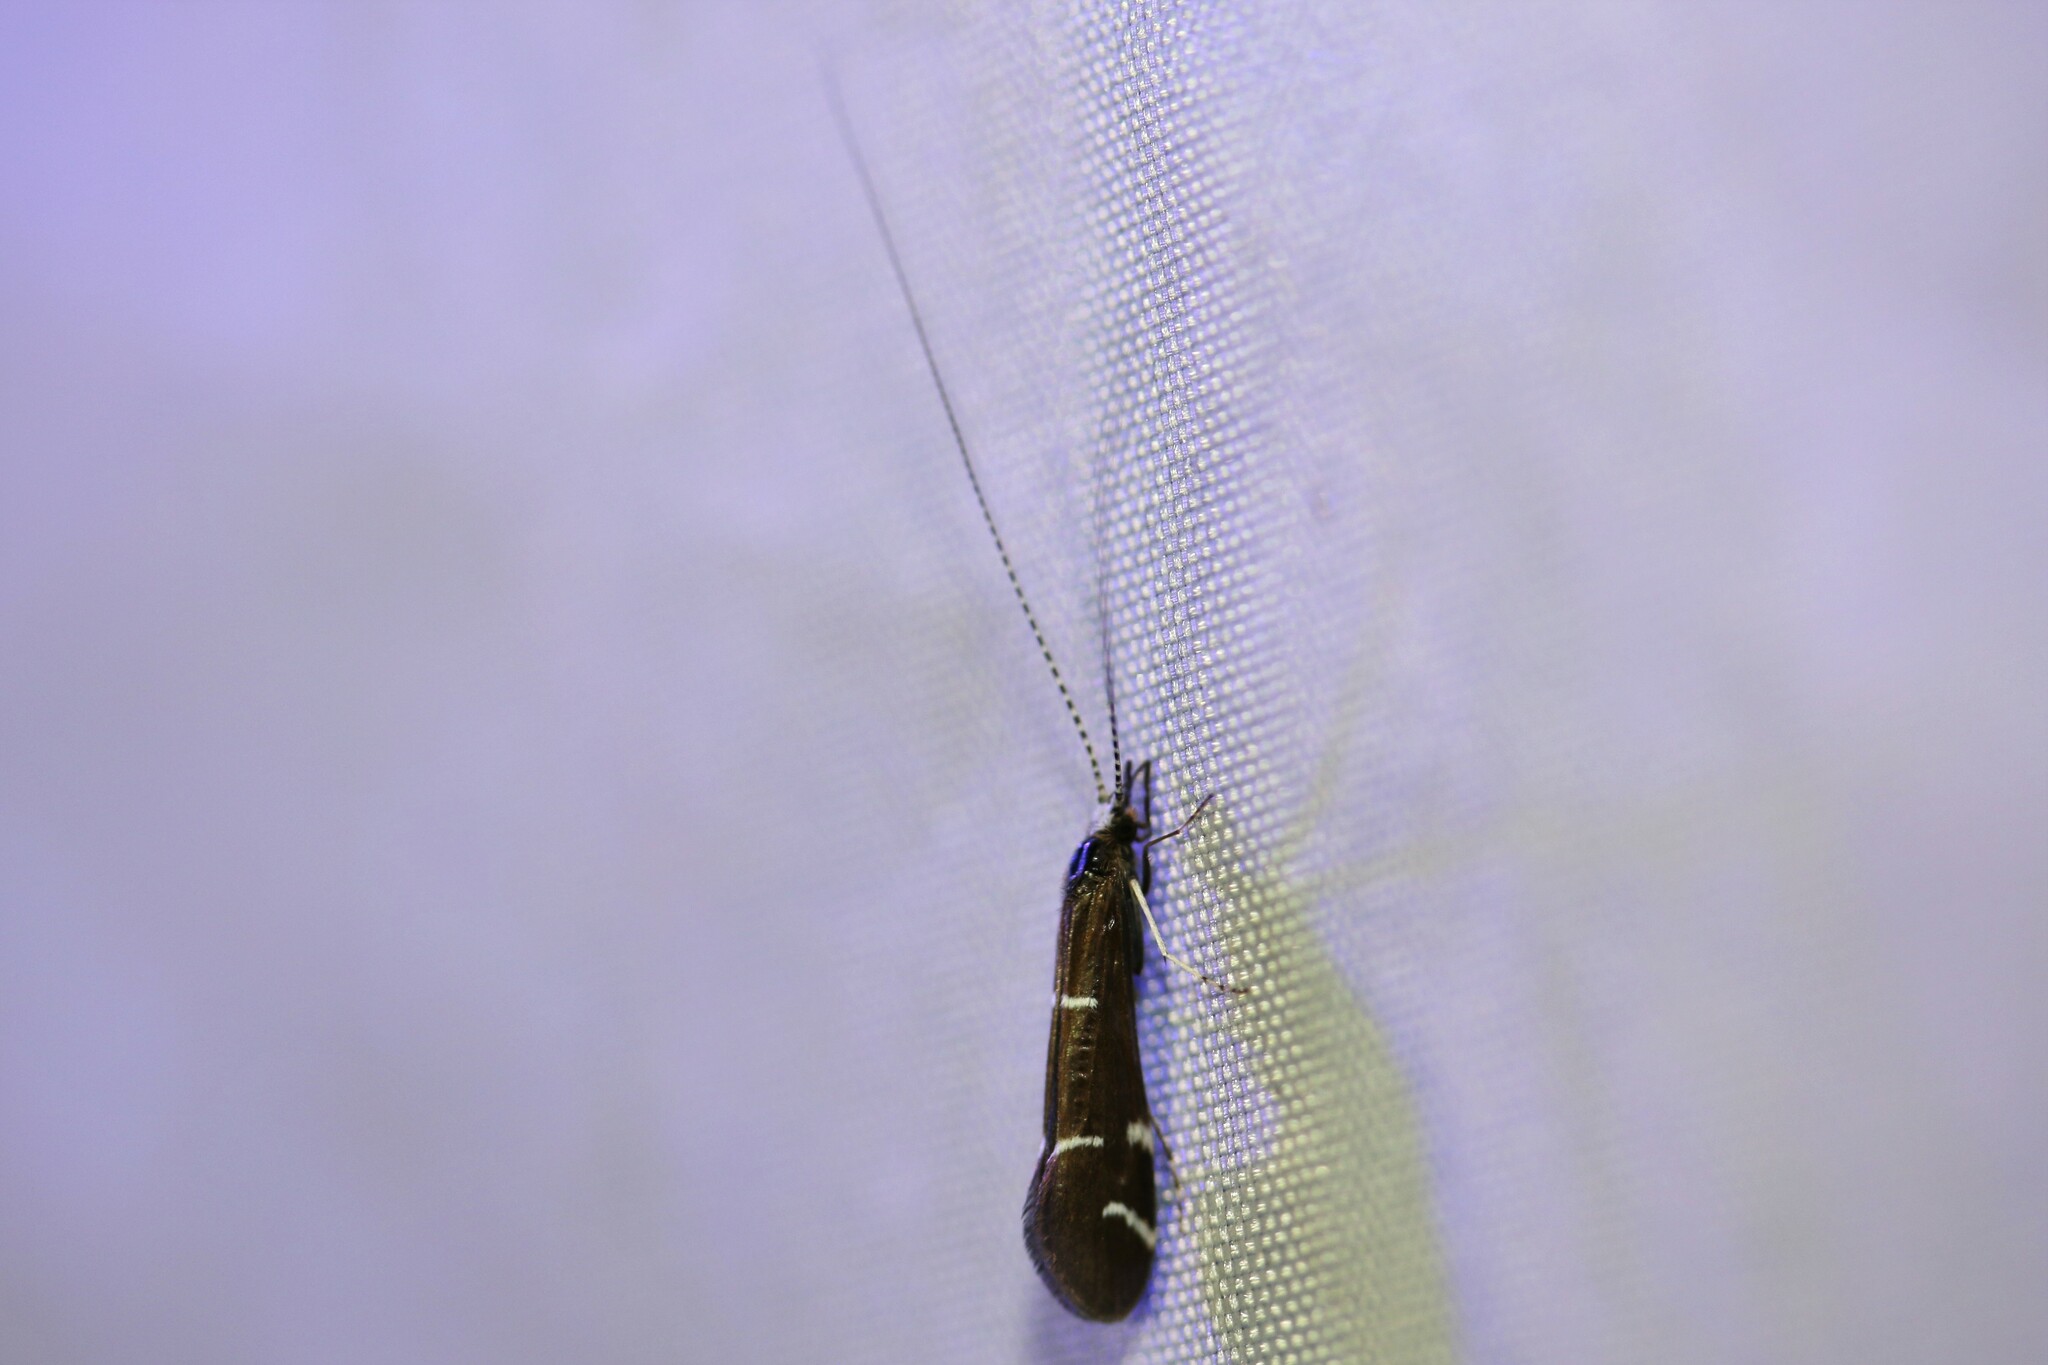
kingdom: Animalia
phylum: Arthropoda
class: Insecta
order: Trichoptera
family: Leptoceridae
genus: Athripsodes
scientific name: Athripsodes albifrons
